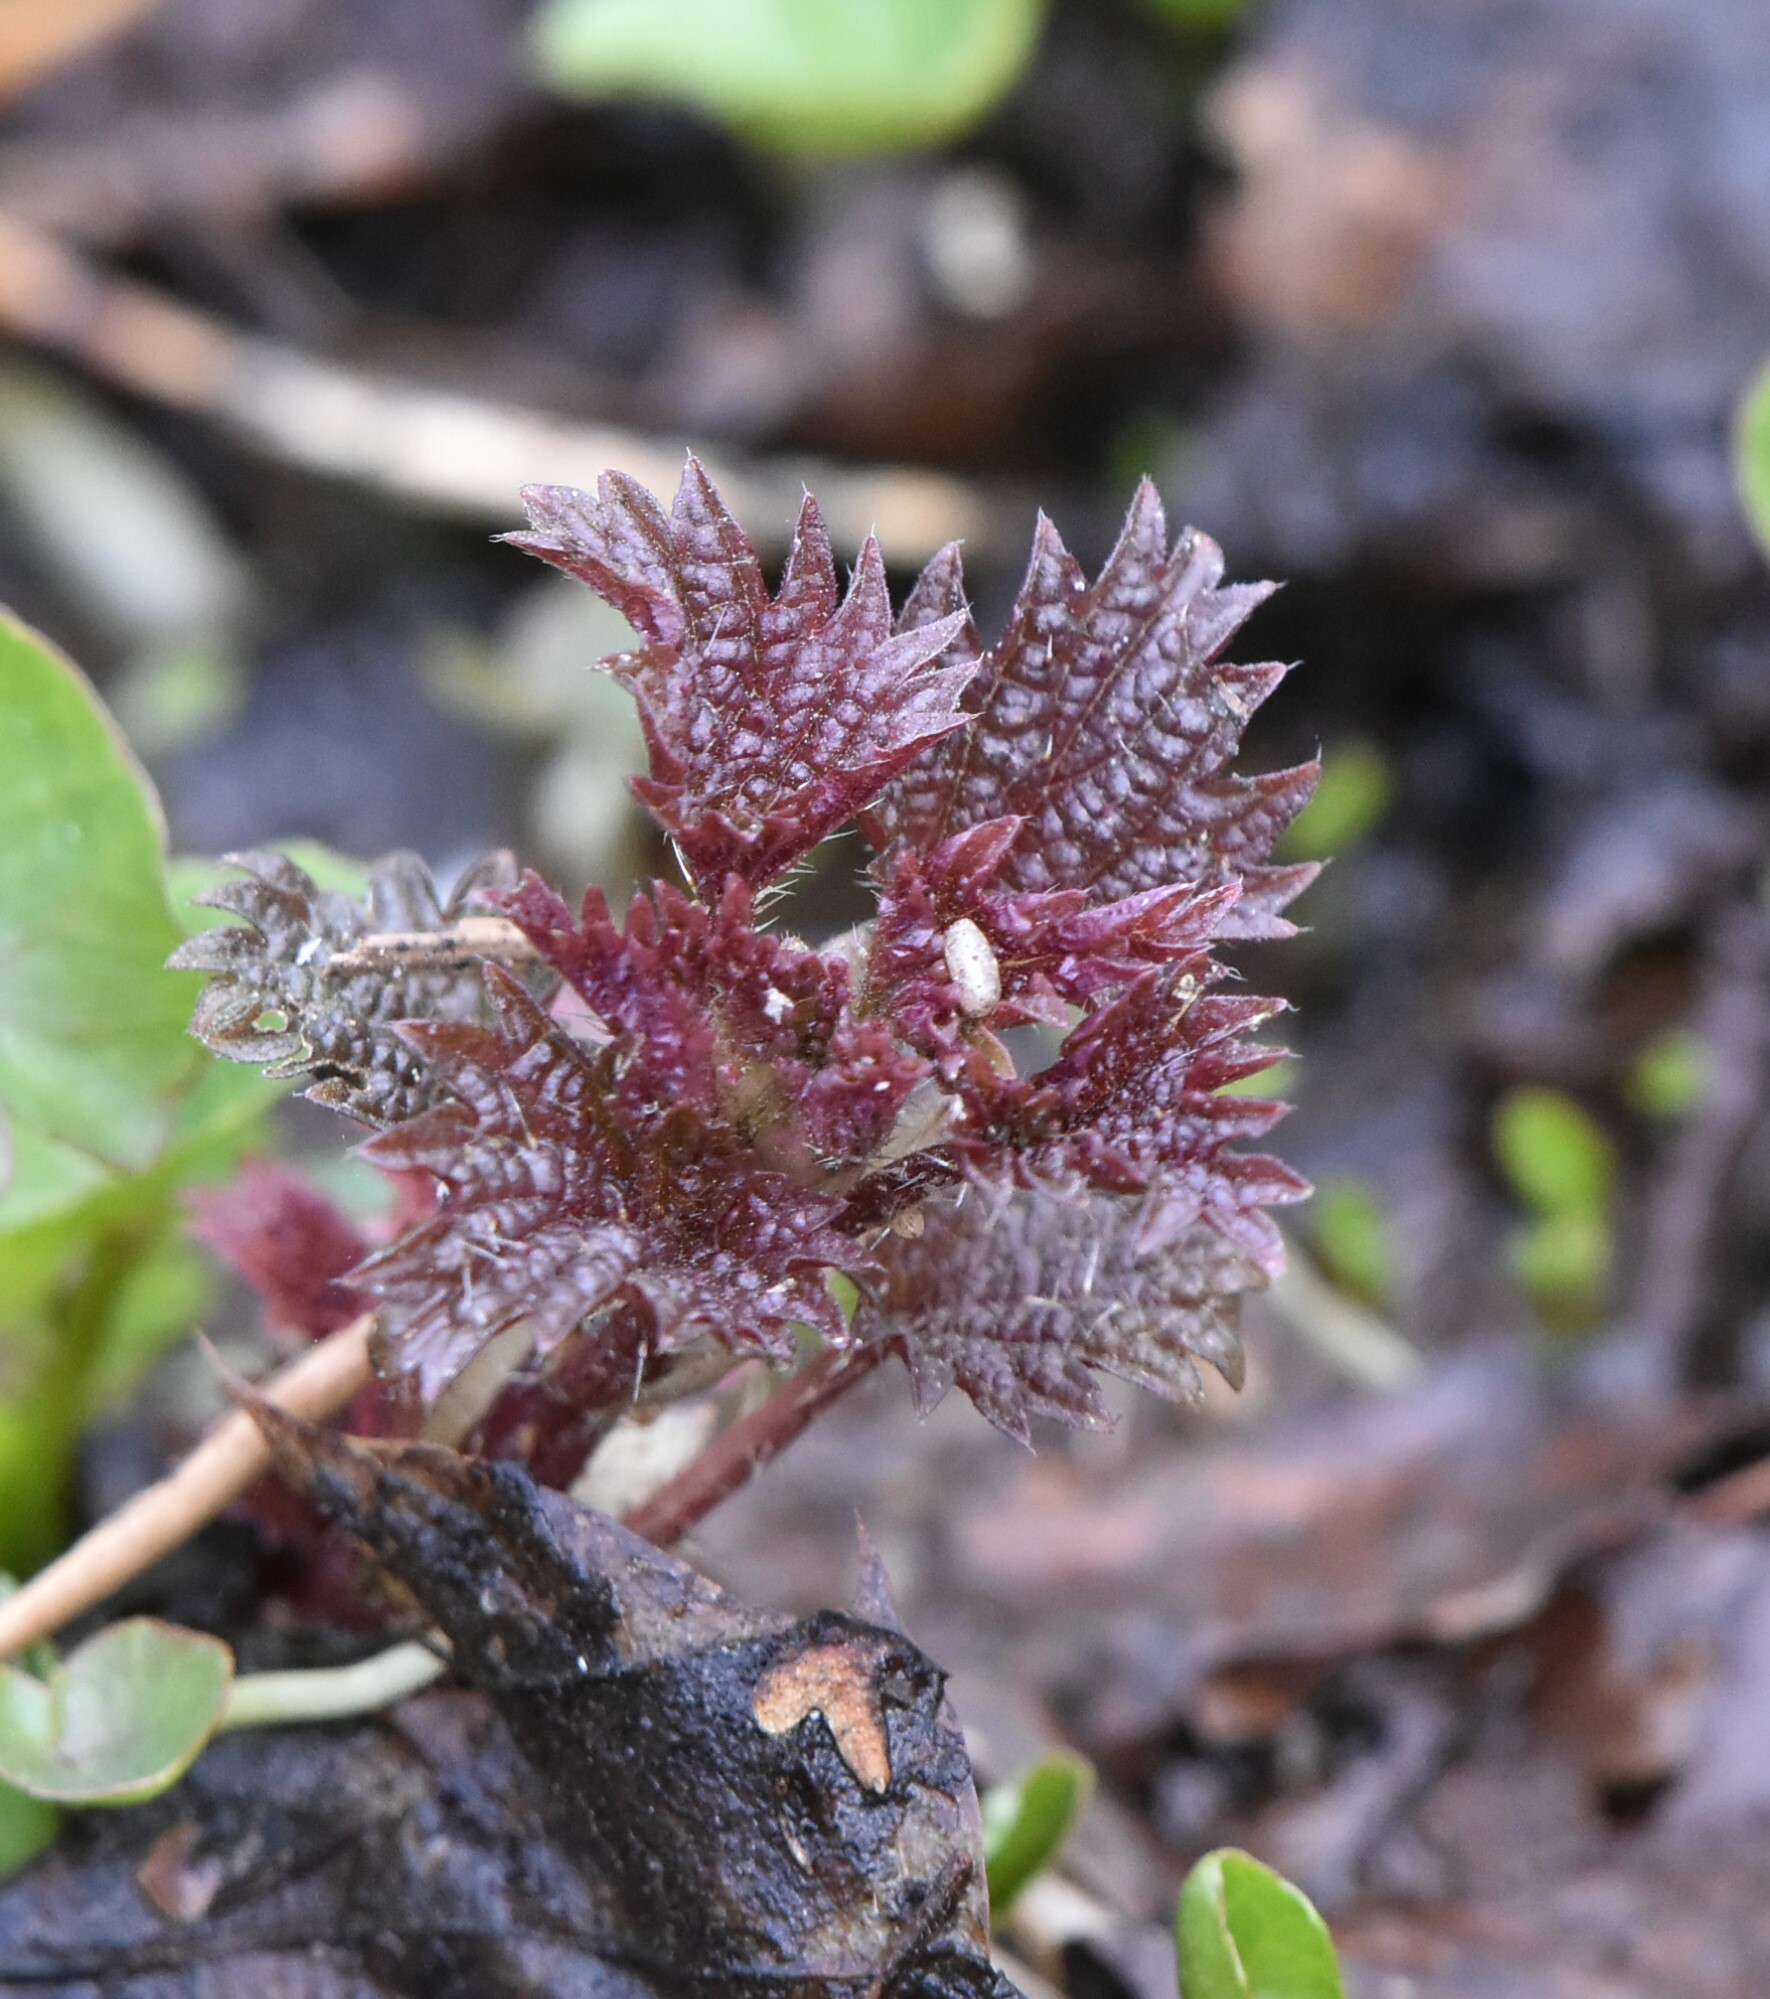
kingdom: Plantae
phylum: Tracheophyta
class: Magnoliopsida
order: Rosales
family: Urticaceae
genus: Urtica
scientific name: Urtica dioica
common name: Common nettle
